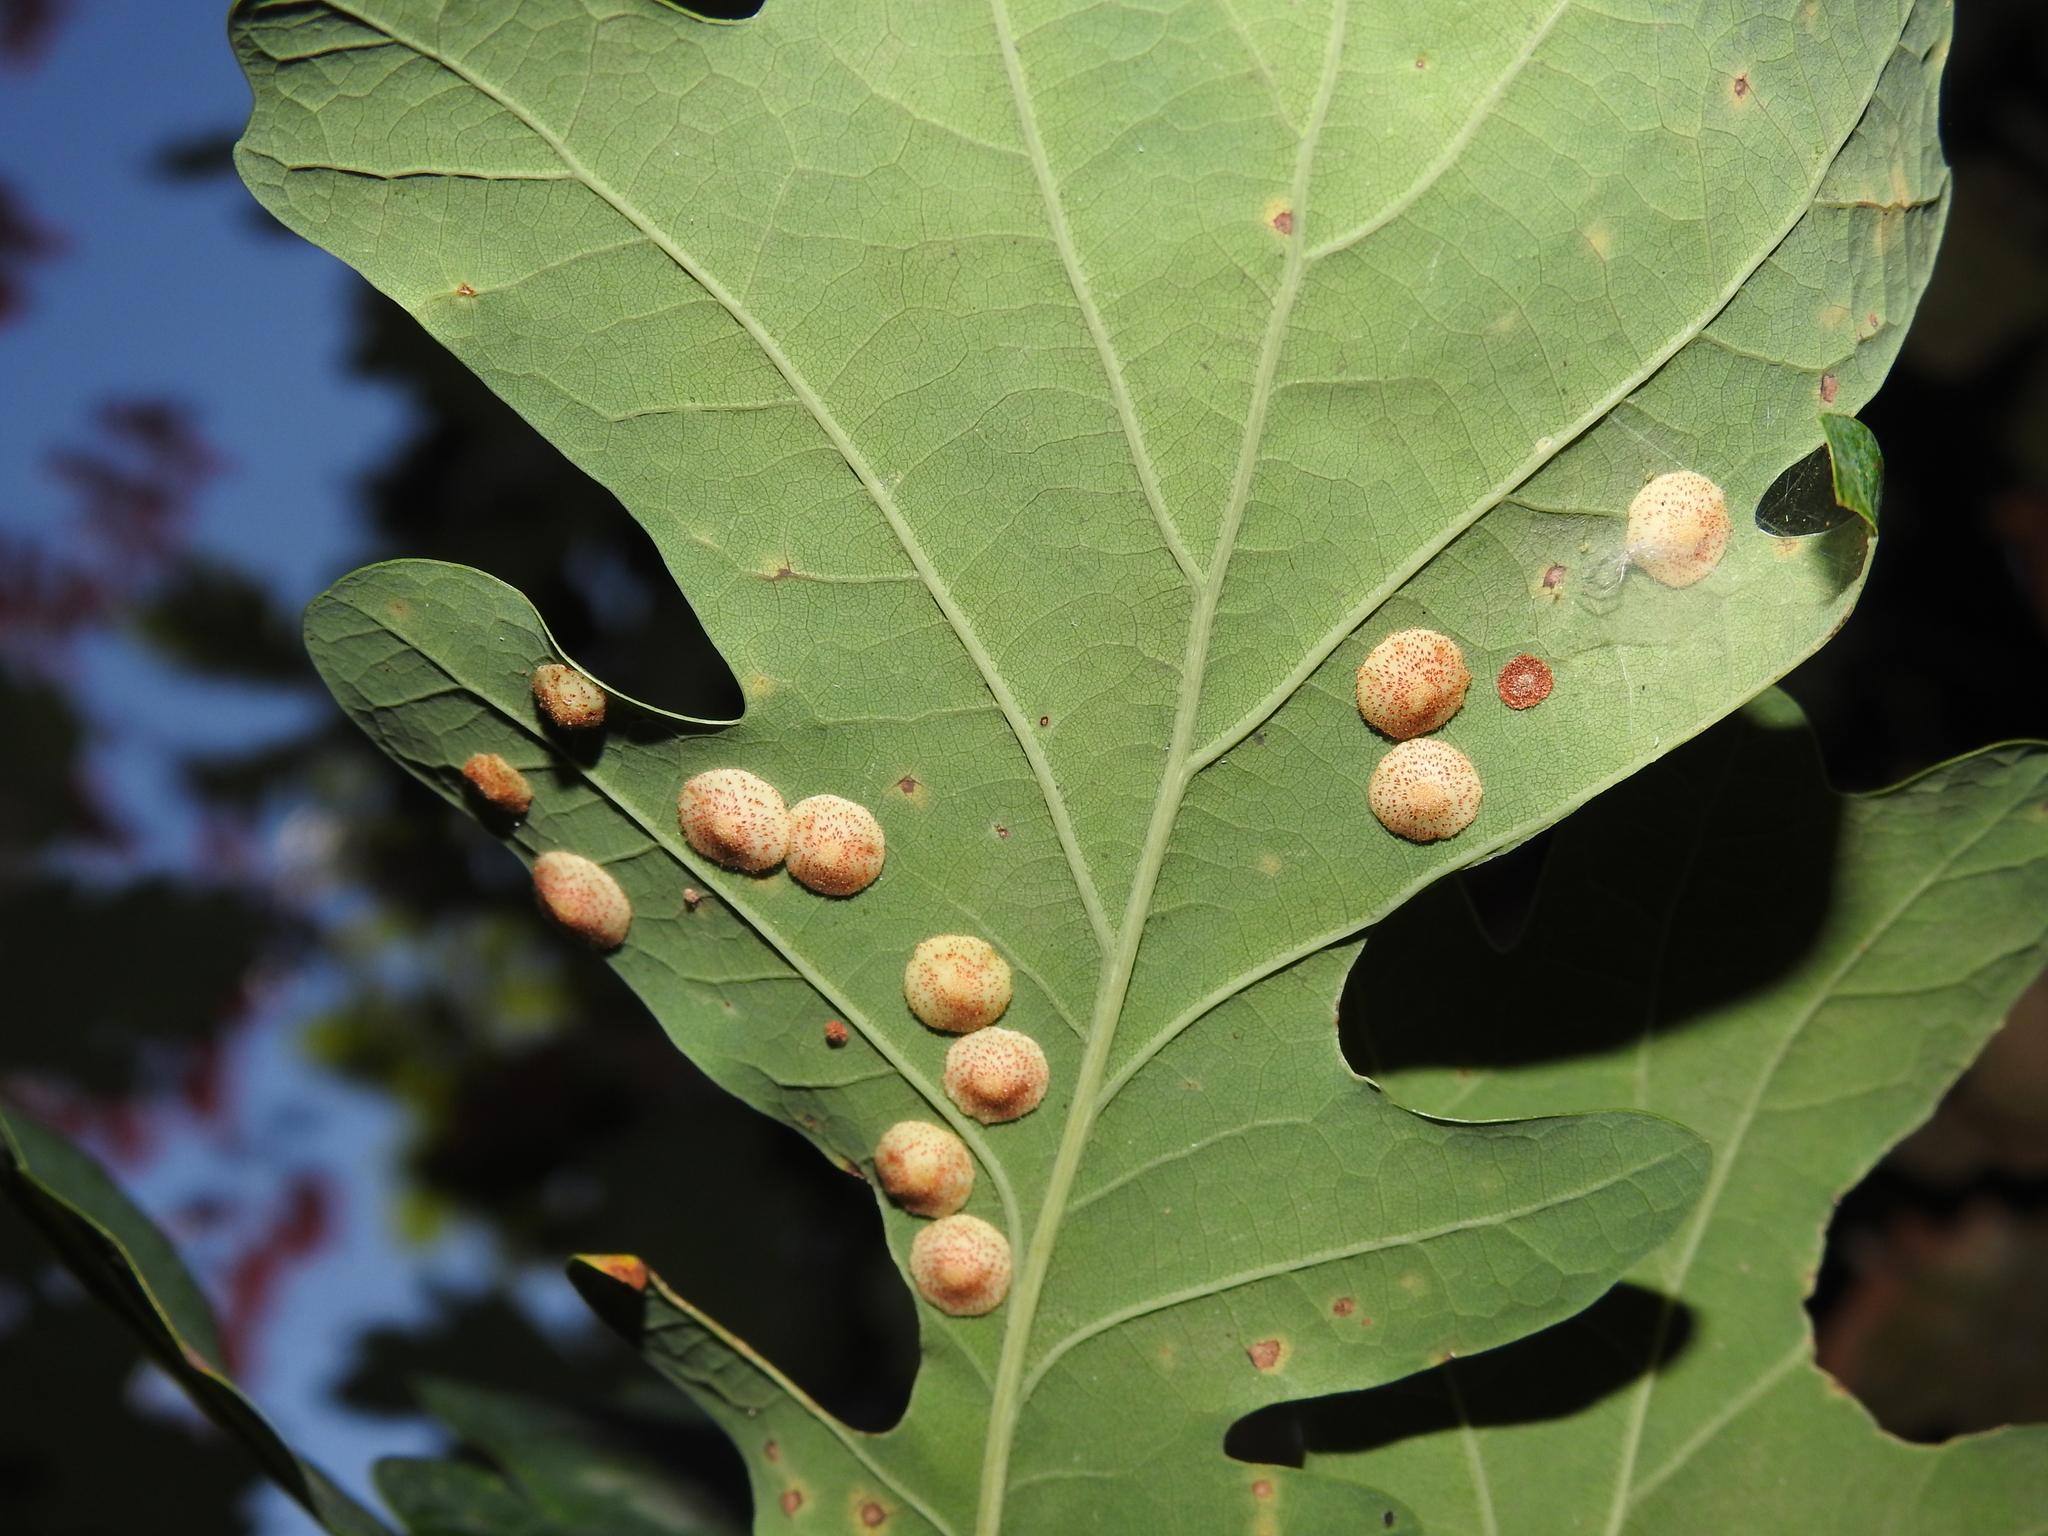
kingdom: Animalia
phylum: Arthropoda
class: Insecta
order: Hymenoptera
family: Cynipidae
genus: Neuroterus
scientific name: Neuroterus quercusbaccarum
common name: Common spangle gall
